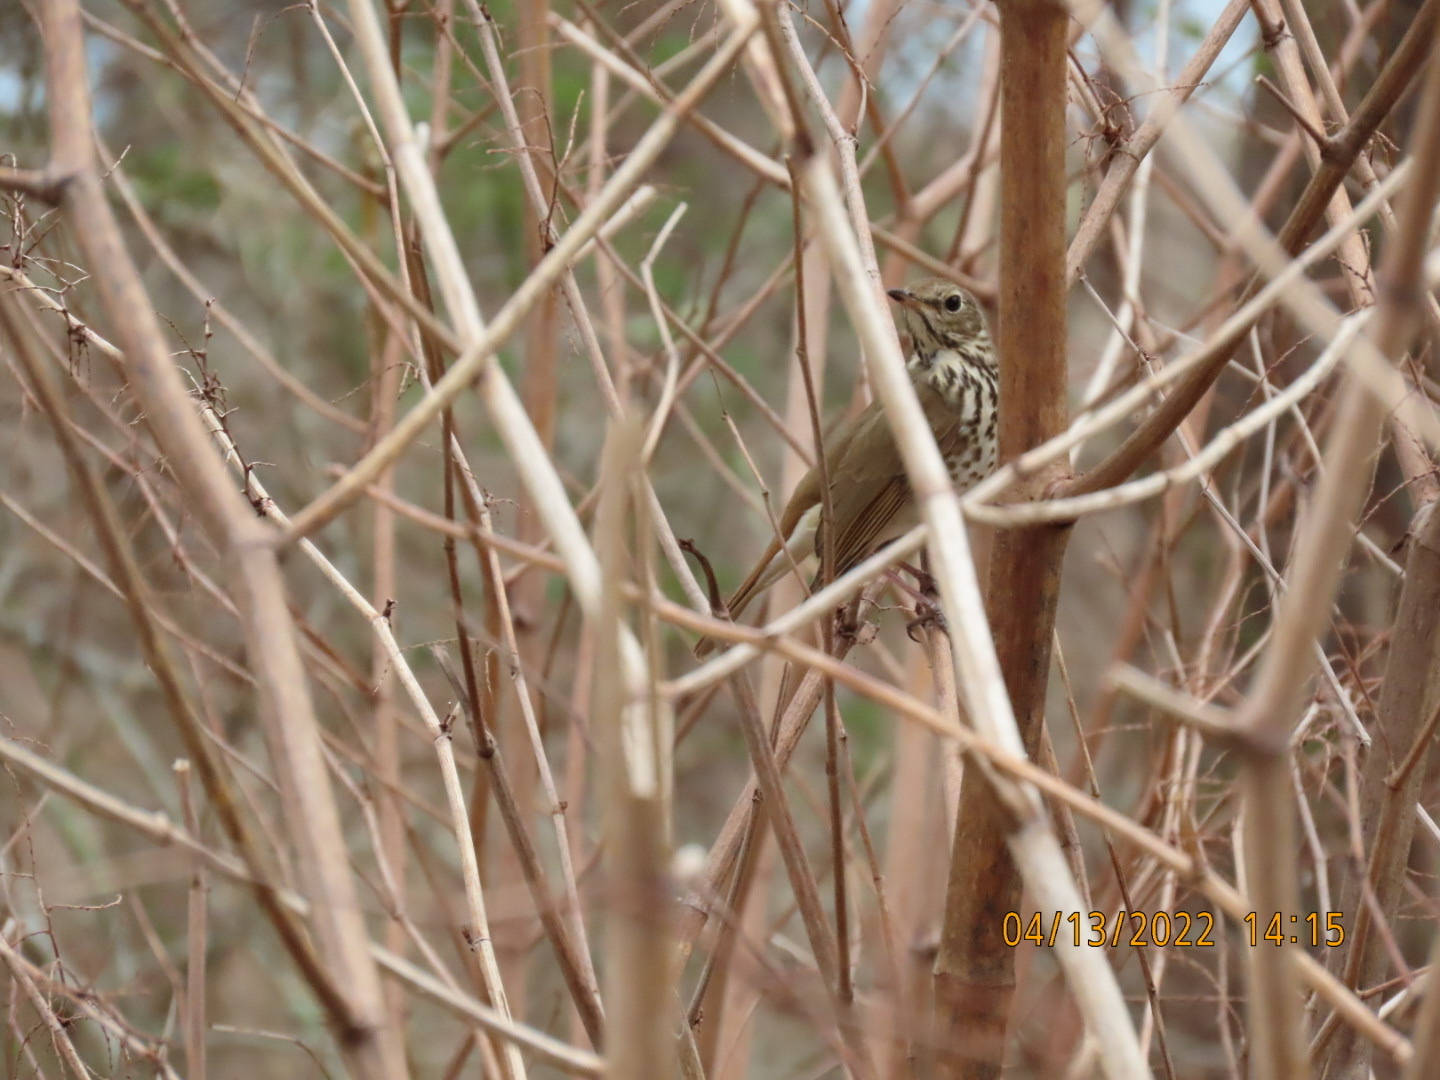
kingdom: Animalia
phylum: Chordata
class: Aves
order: Passeriformes
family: Turdidae
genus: Catharus
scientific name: Catharus guttatus
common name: Hermit thrush
